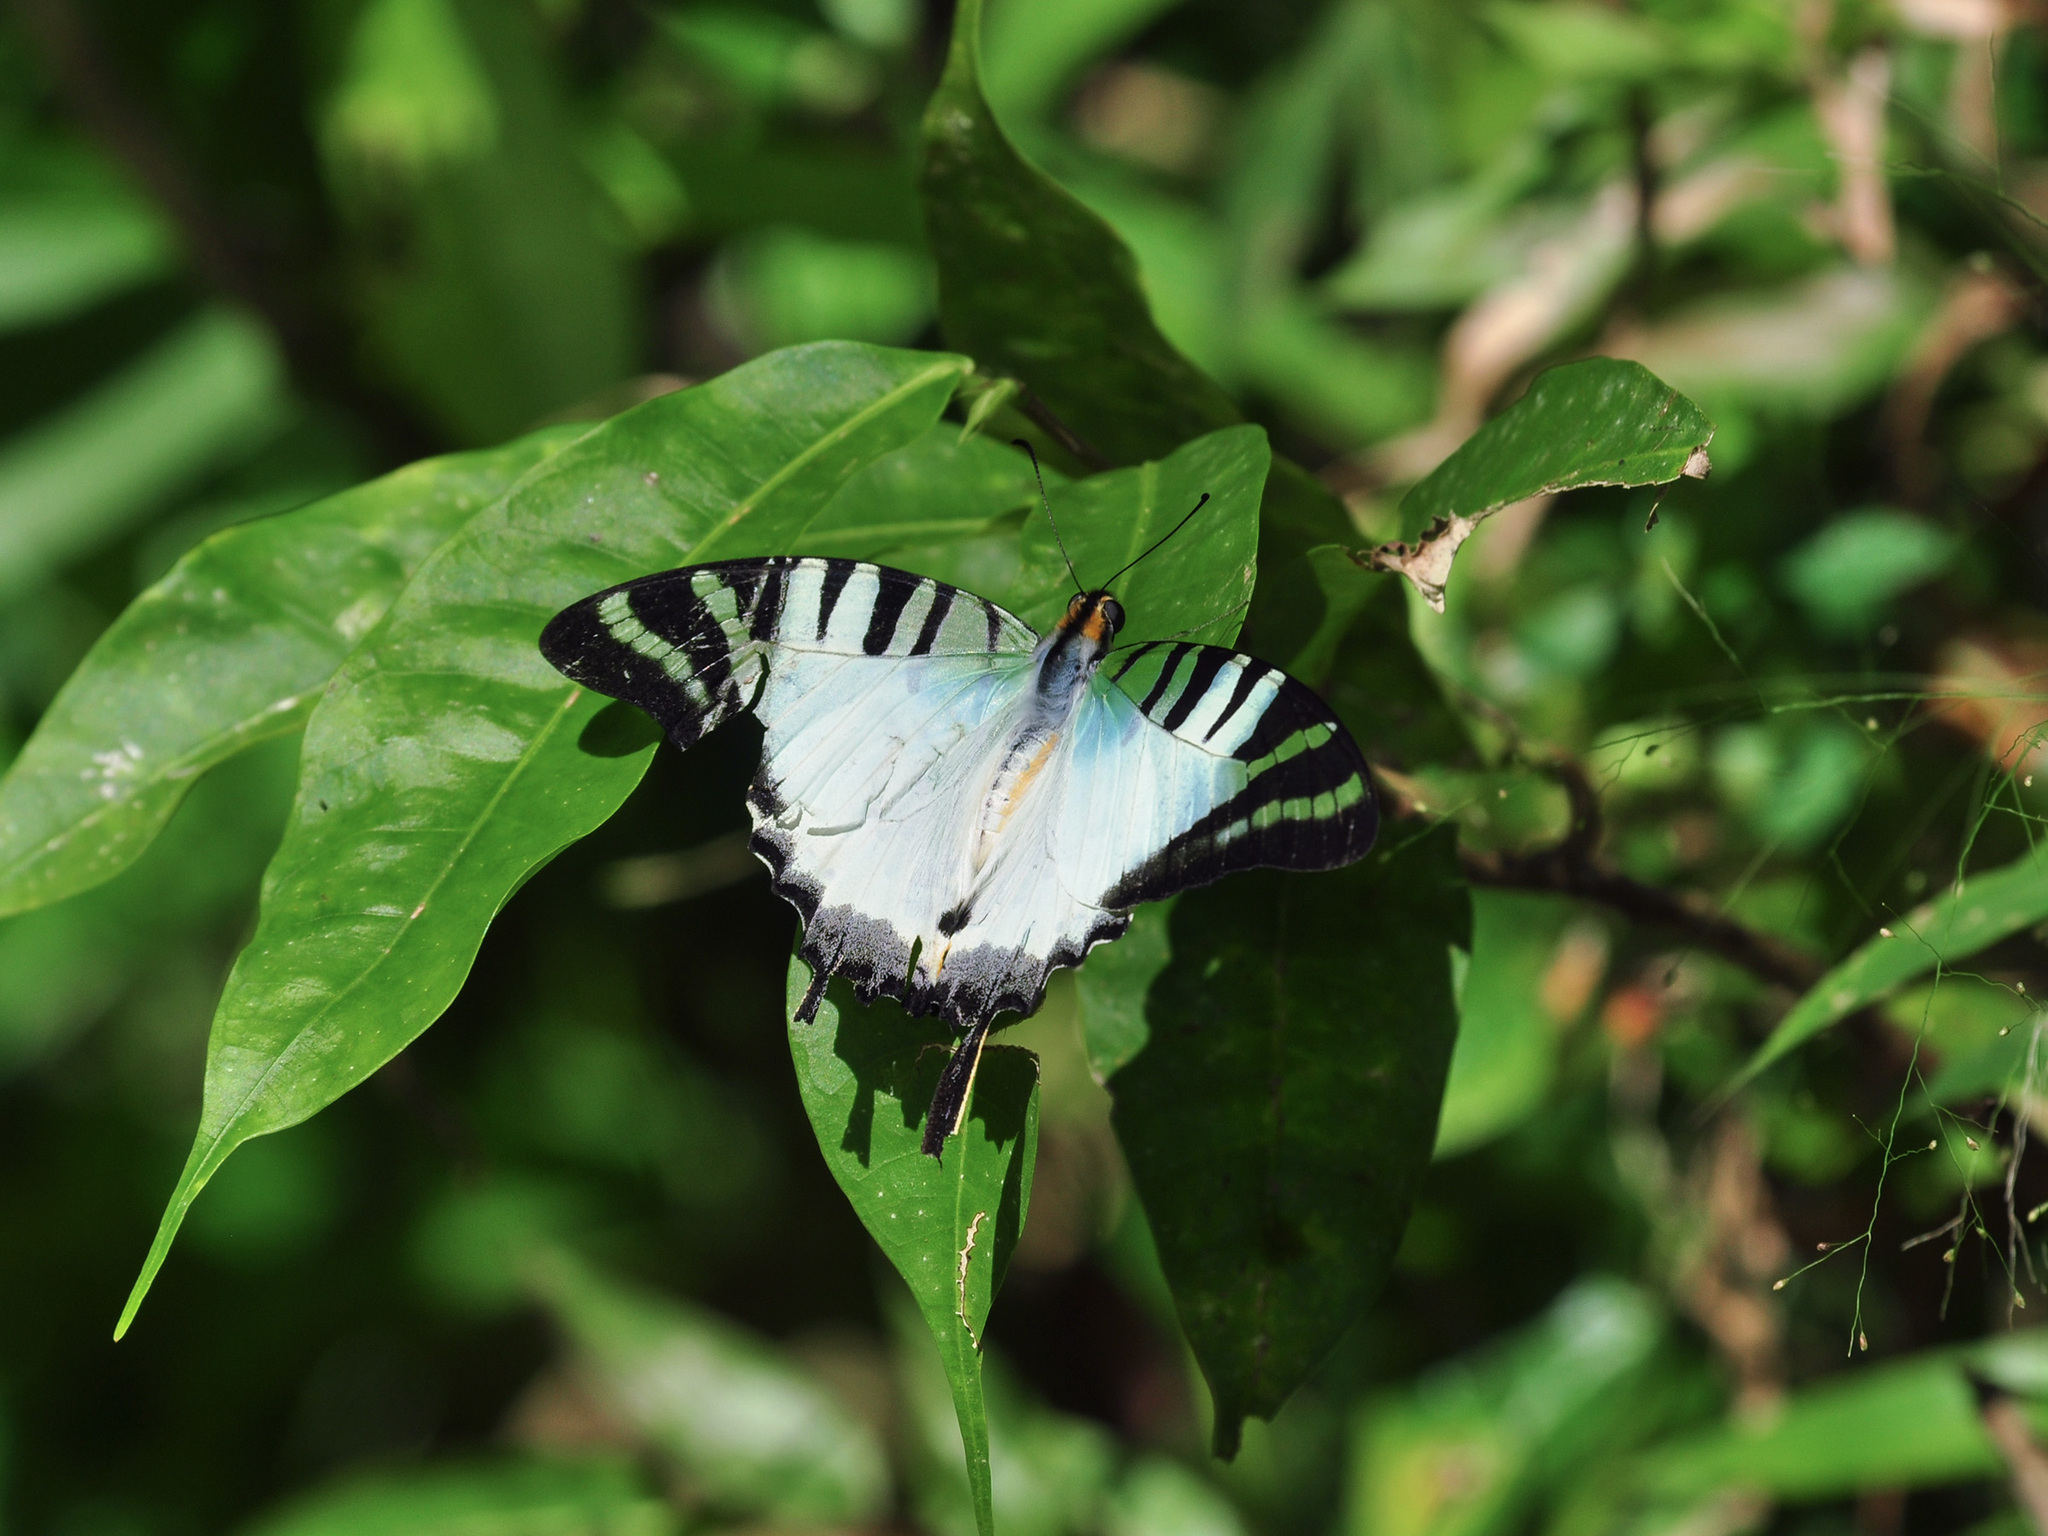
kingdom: Animalia
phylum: Arthropoda
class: Insecta
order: Lepidoptera
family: Papilionidae
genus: Graphium
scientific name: Graphium antiphates
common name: Fivebar swordtail
